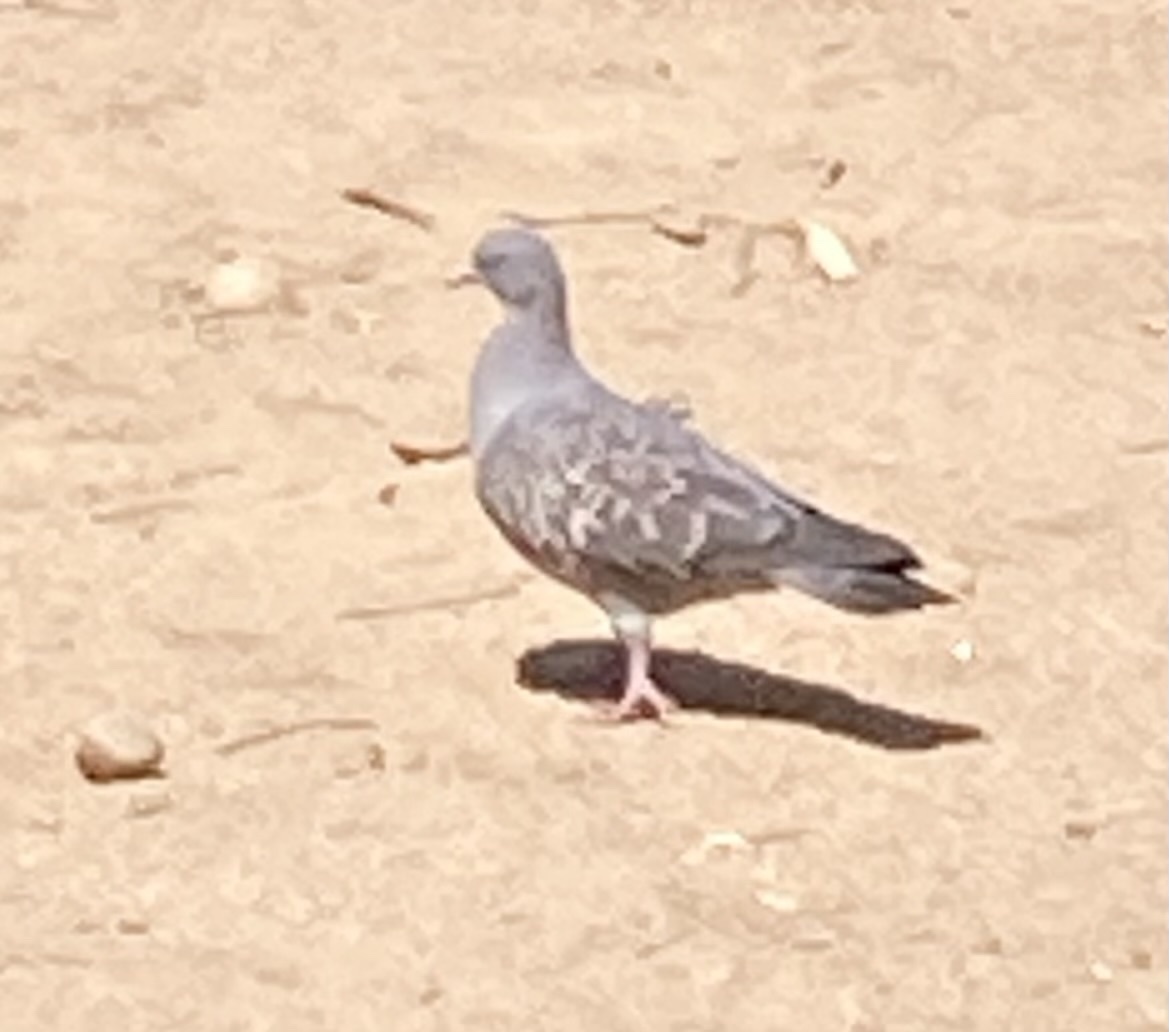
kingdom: Animalia
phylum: Chordata
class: Aves
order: Columbiformes
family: Columbidae
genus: Columba
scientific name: Columba livia
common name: Rock pigeon
